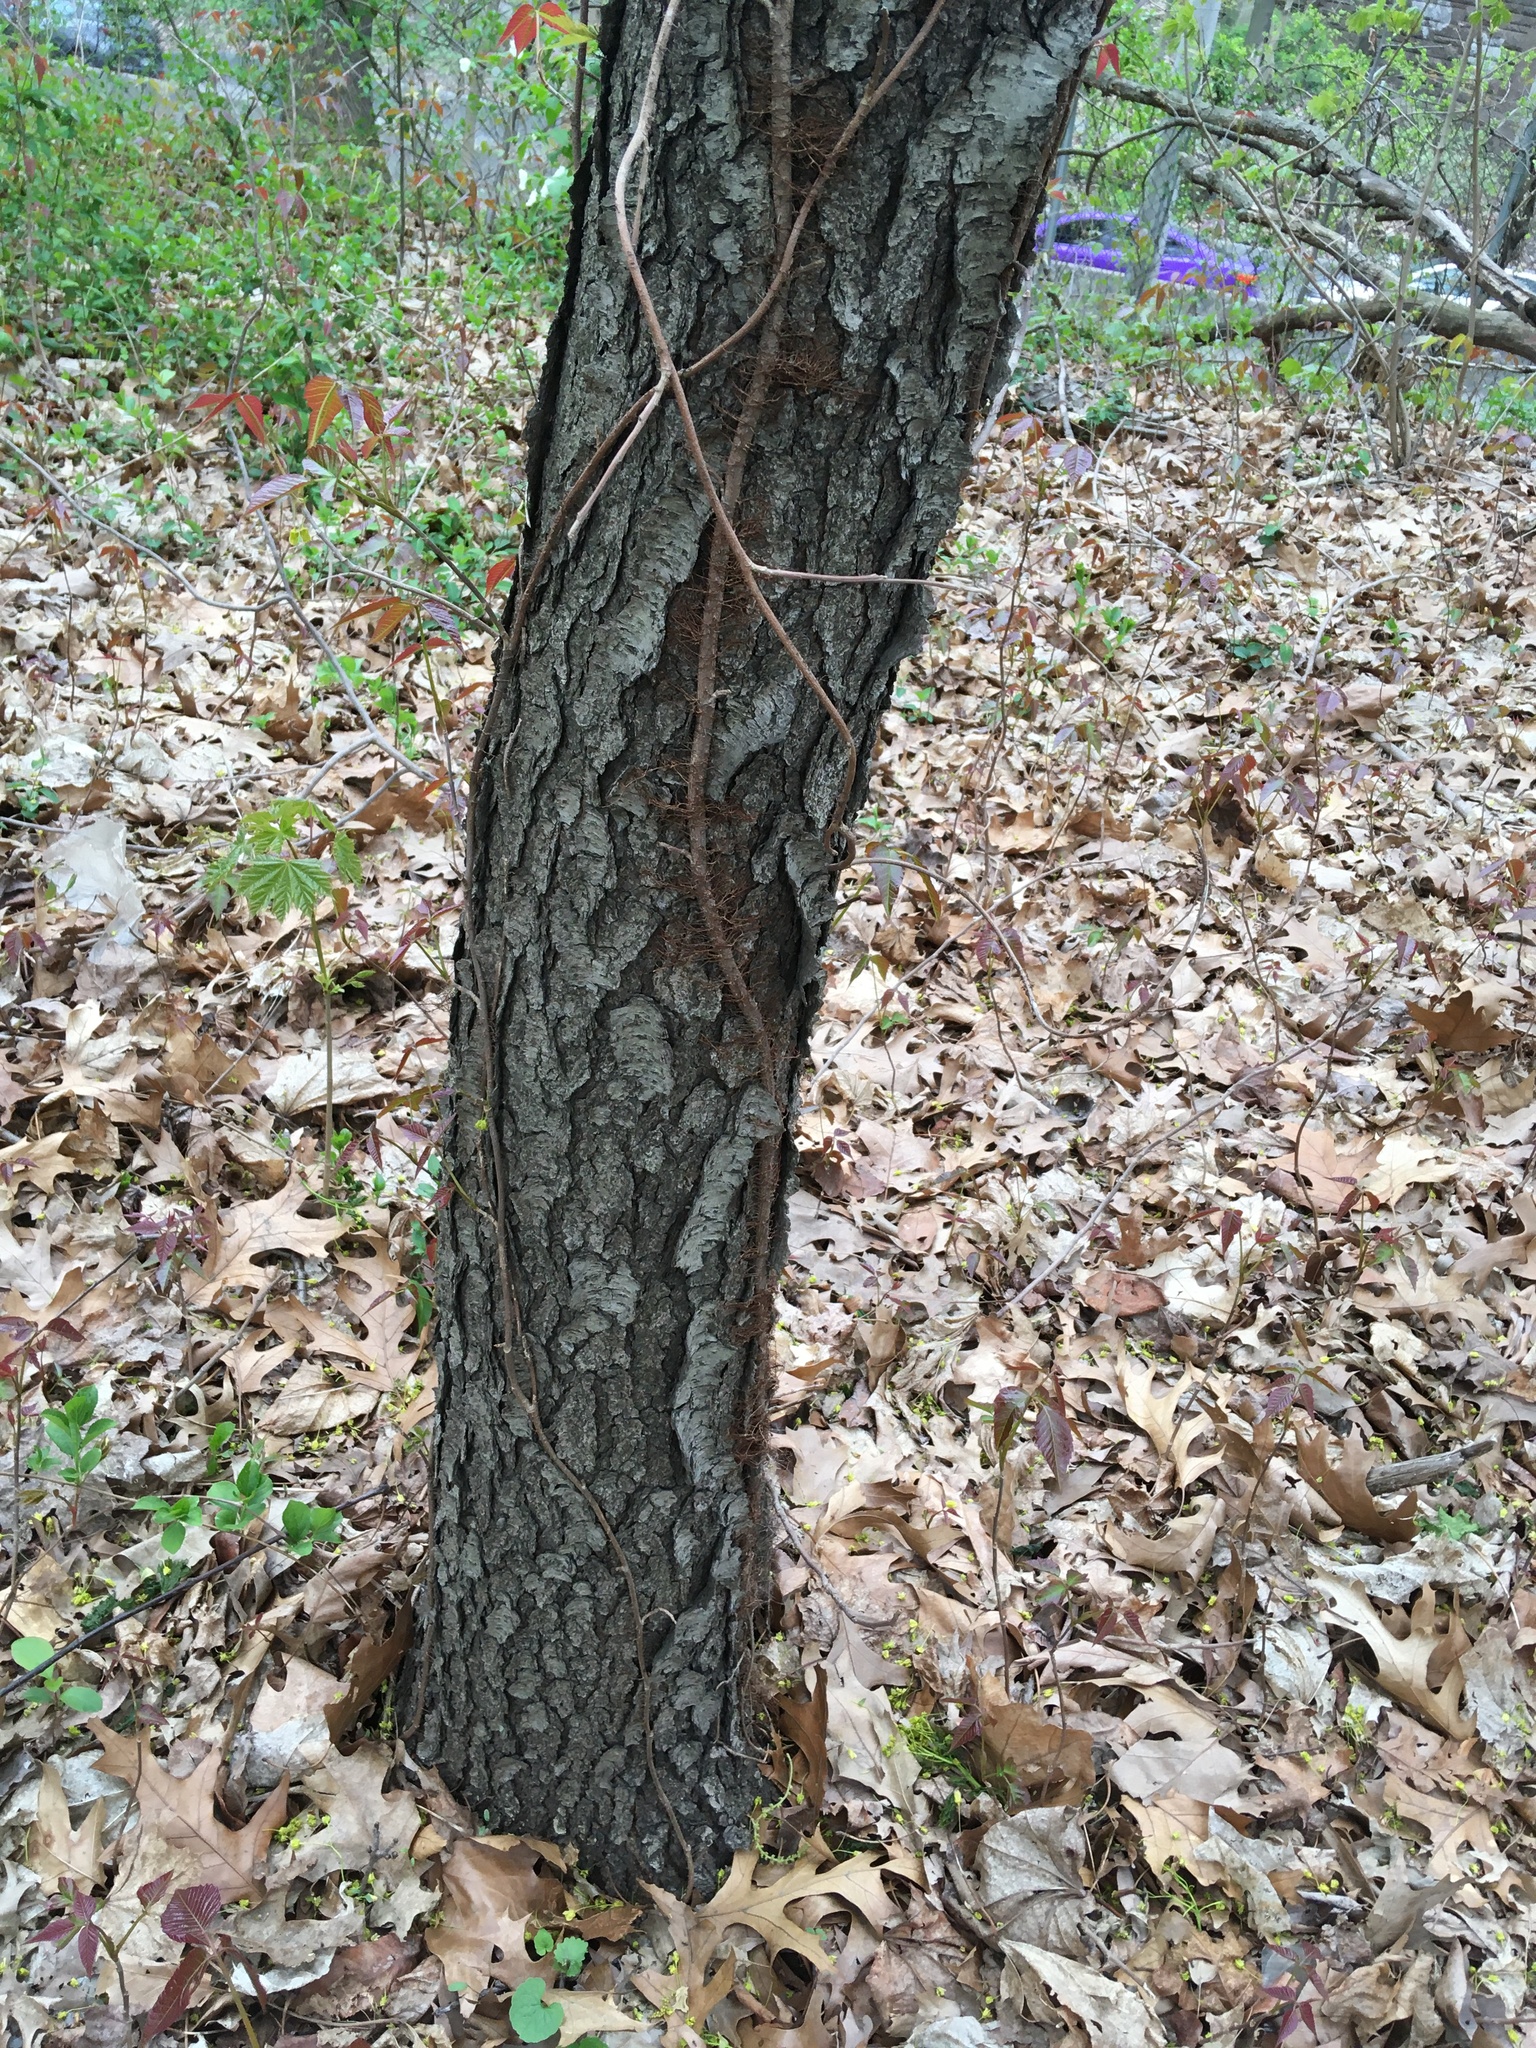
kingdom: Plantae
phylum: Tracheophyta
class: Magnoliopsida
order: Rosales
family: Rosaceae
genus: Prunus
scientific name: Prunus serotina
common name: Black cherry
